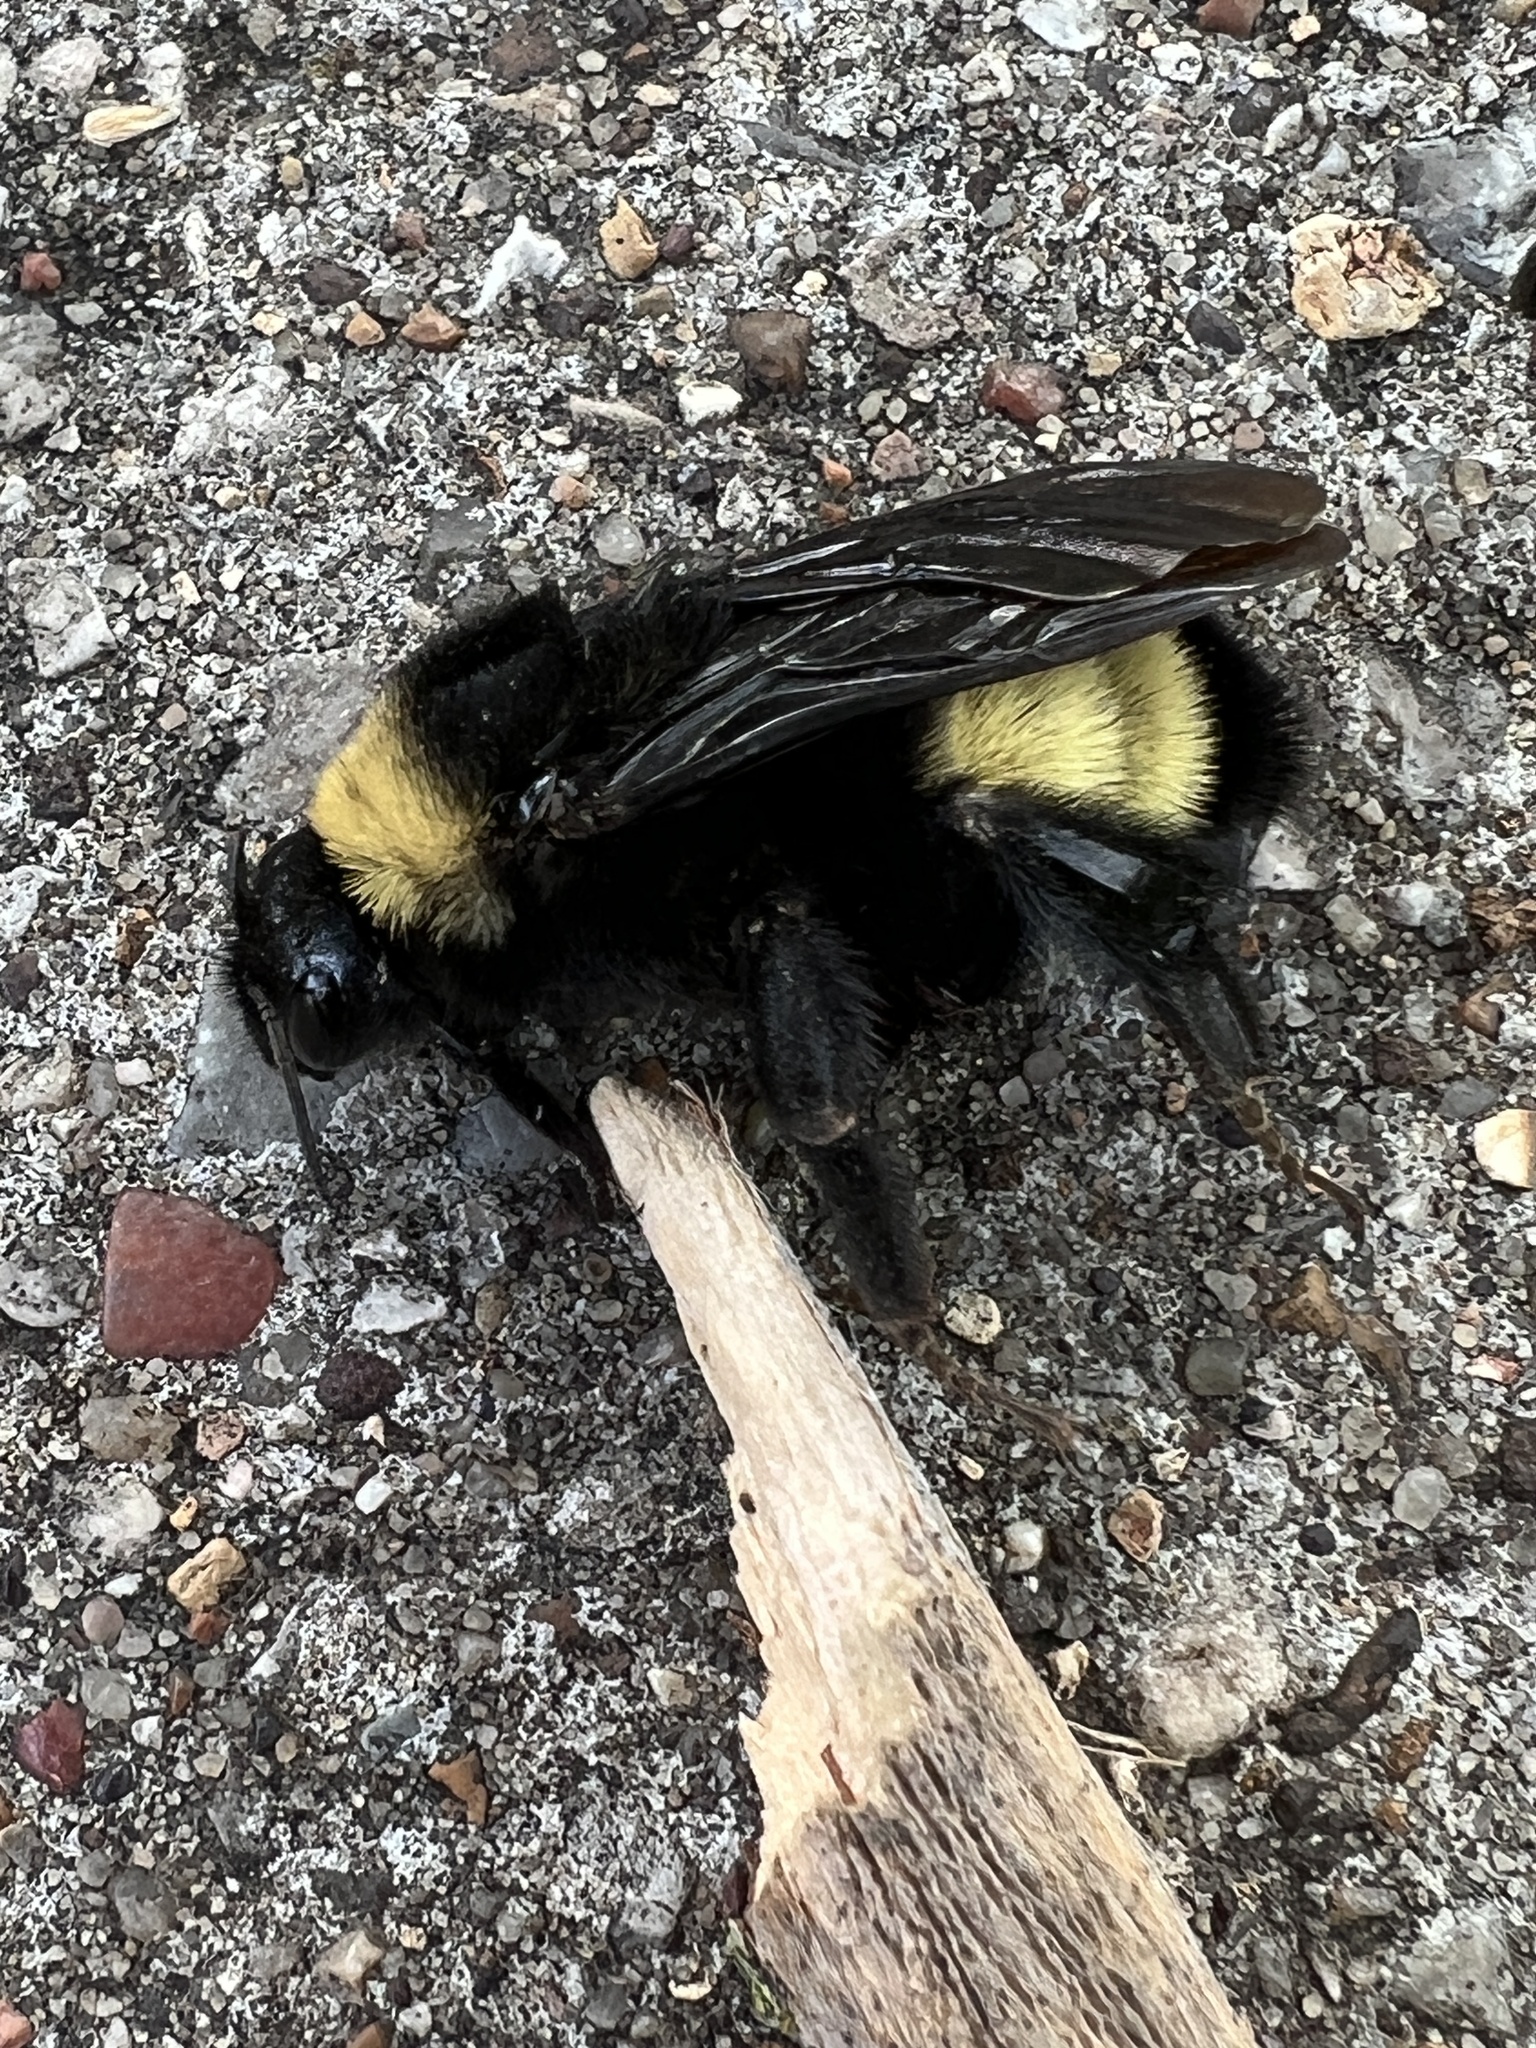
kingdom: Animalia
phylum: Arthropoda
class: Insecta
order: Hymenoptera
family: Apidae
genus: Bombus
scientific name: Bombus pensylvanicus
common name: Bumble bee
